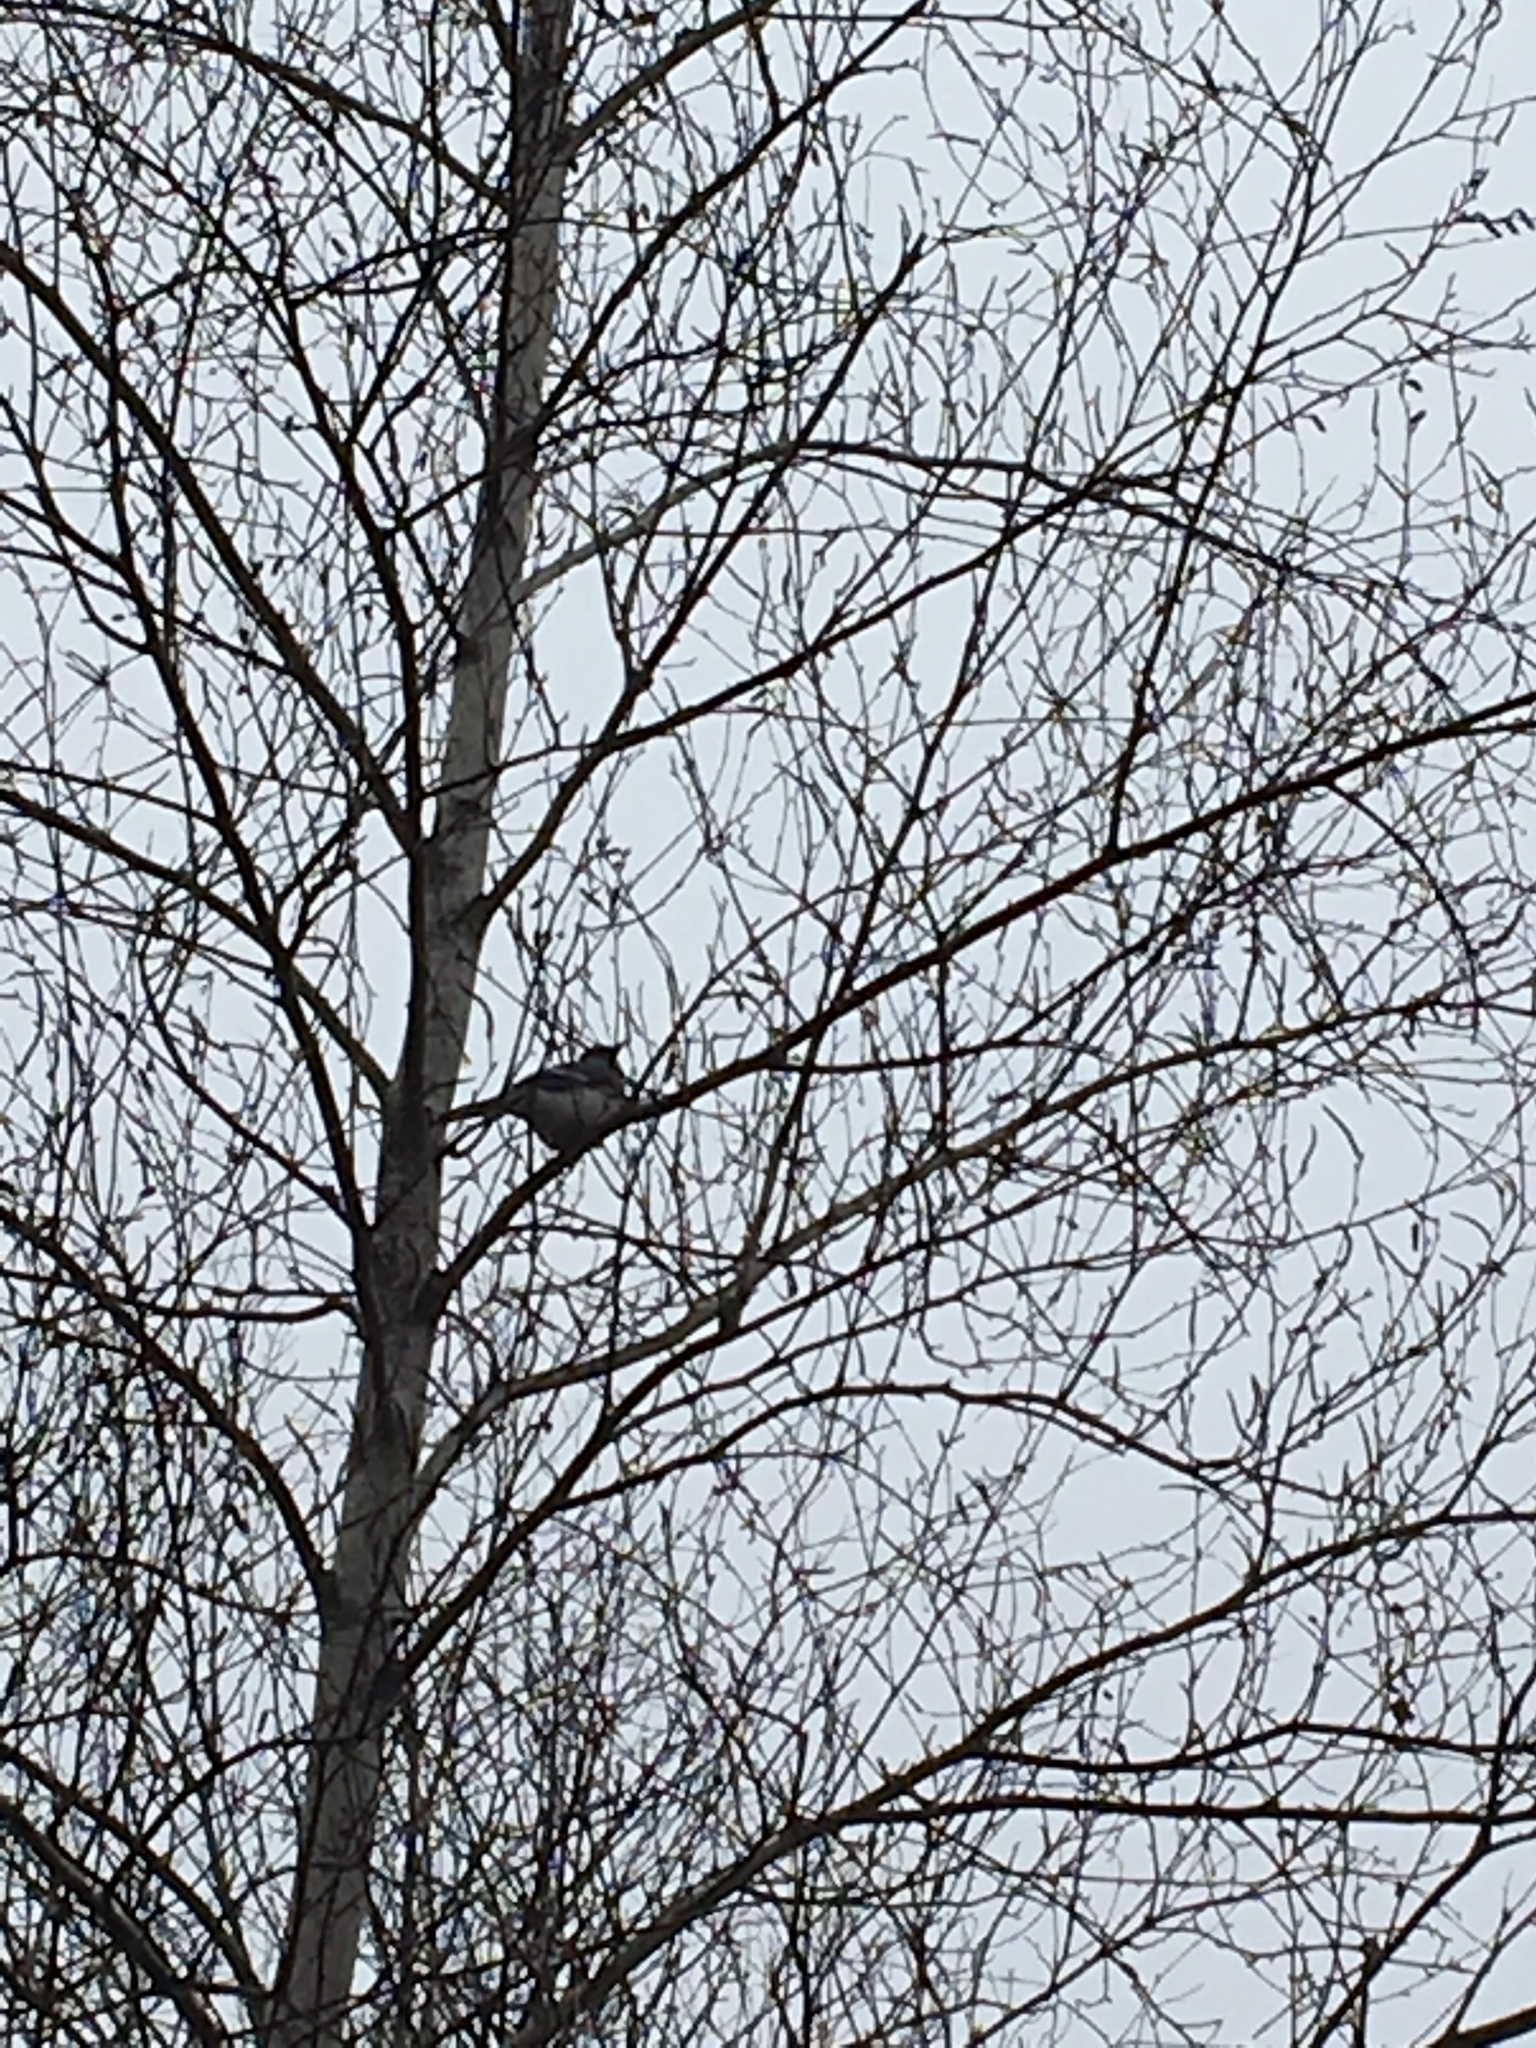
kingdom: Animalia
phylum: Chordata
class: Aves
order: Passeriformes
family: Corvidae
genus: Cyanocitta
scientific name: Cyanocitta cristata
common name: Blue jay
